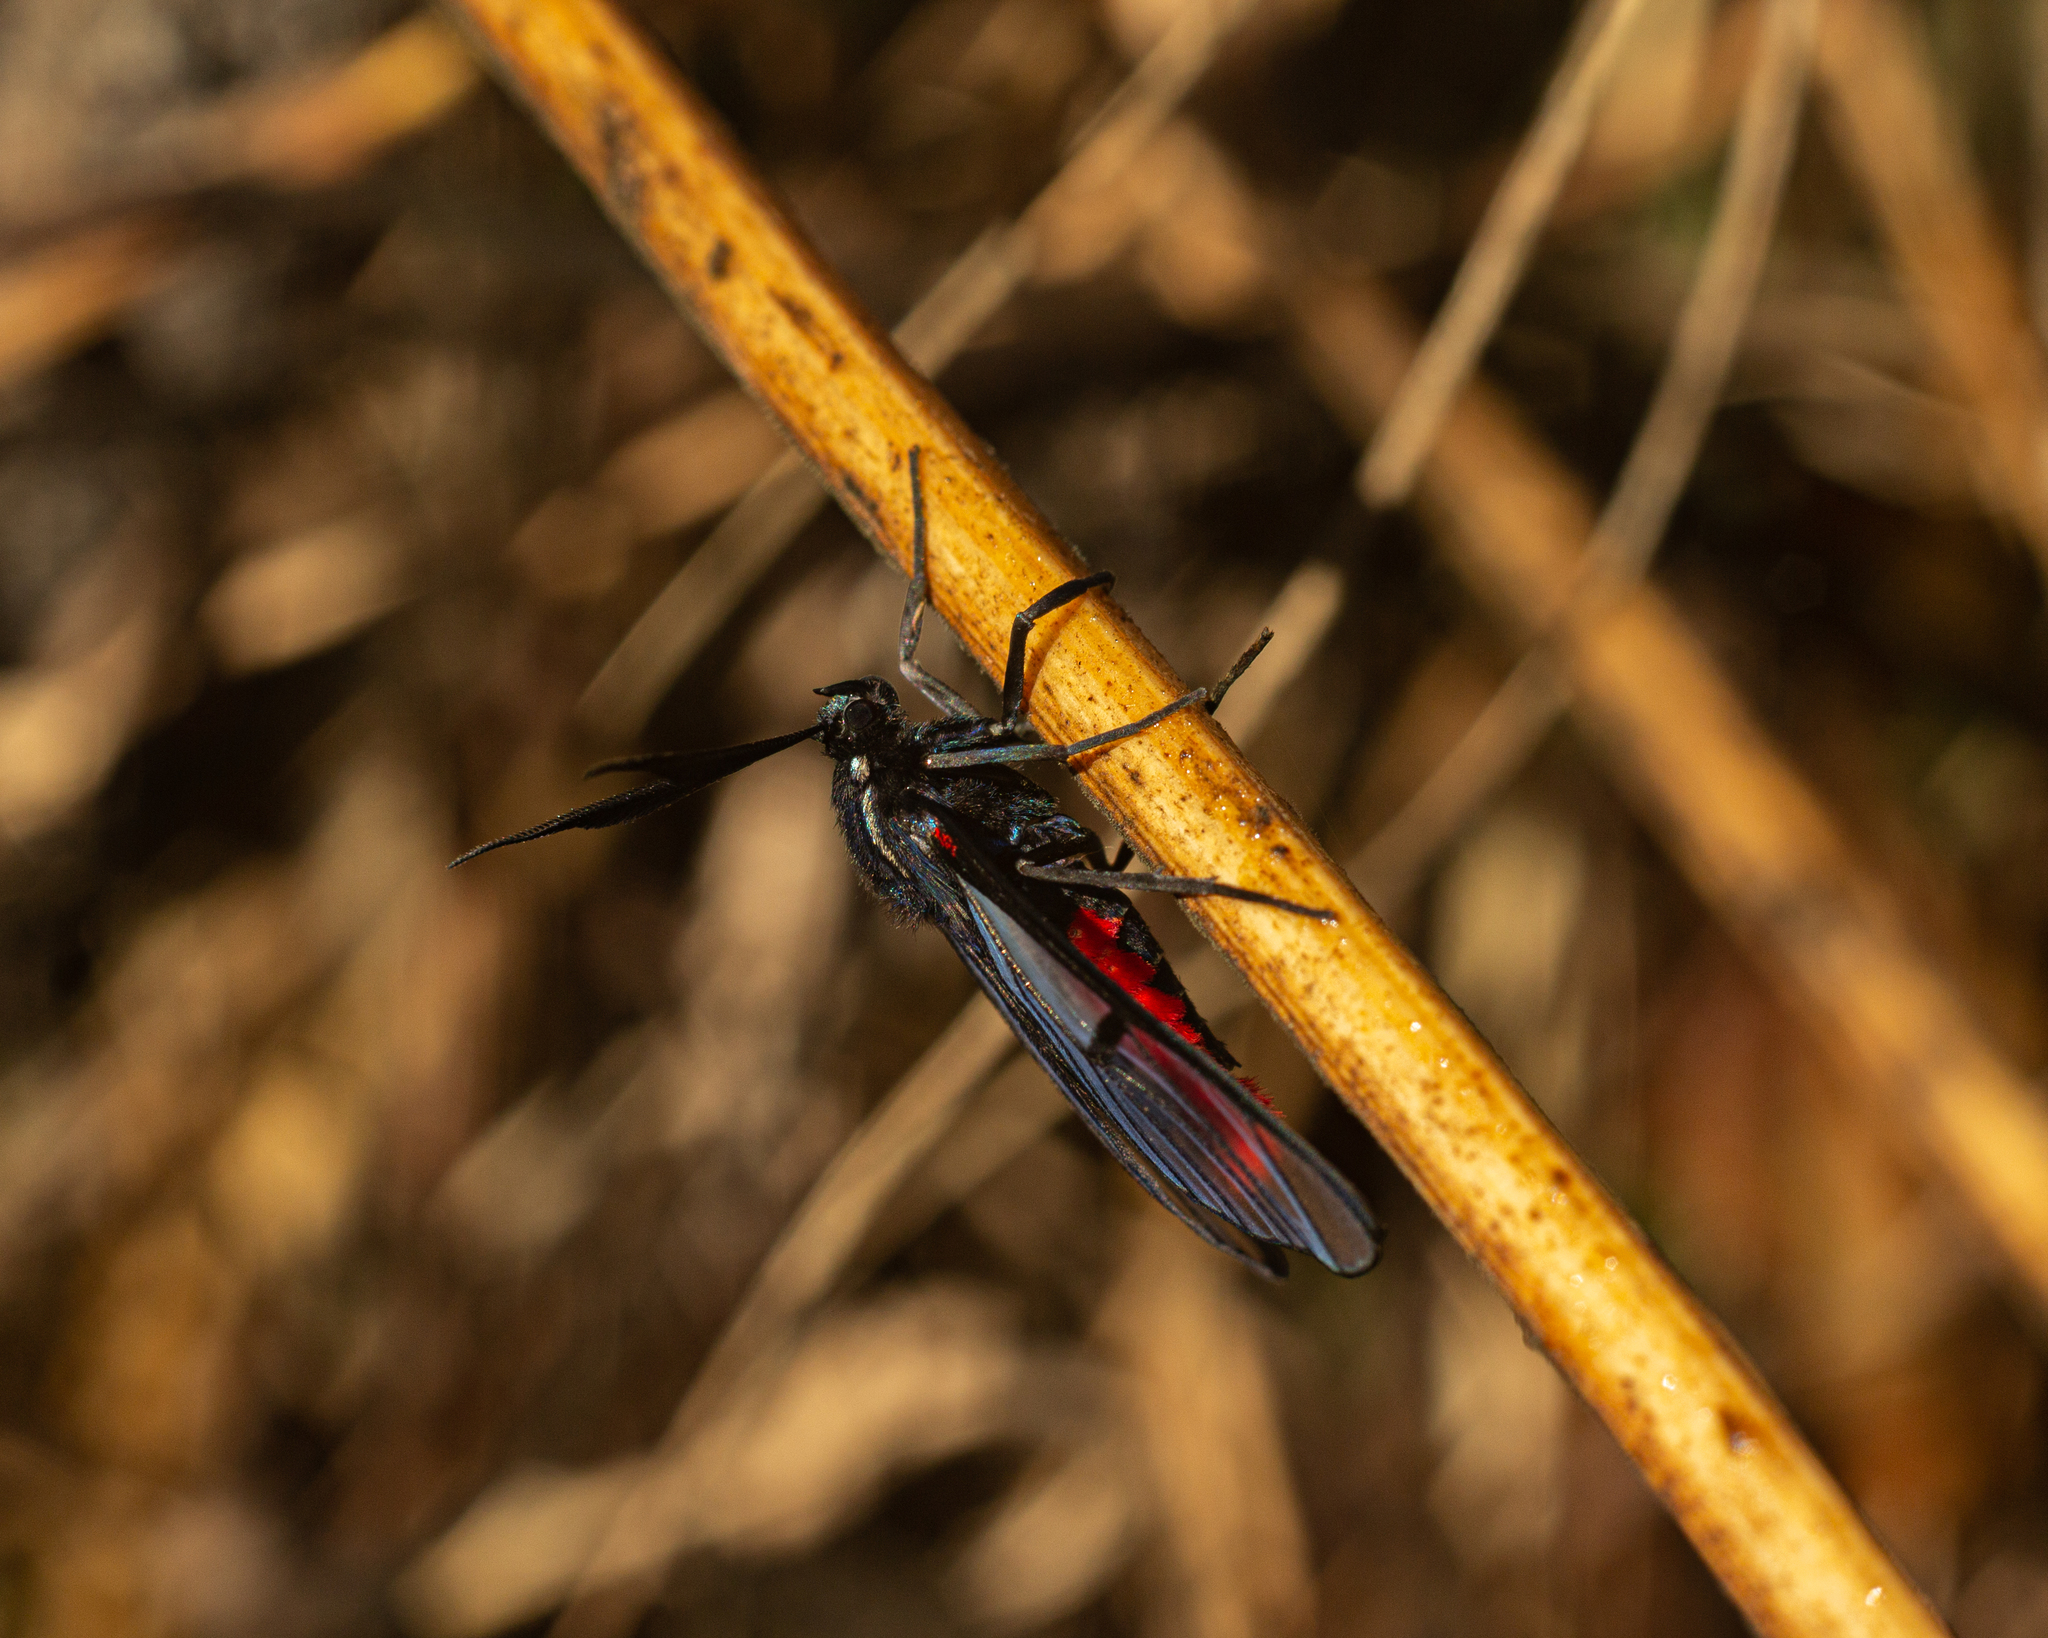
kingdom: Animalia
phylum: Arthropoda
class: Insecta
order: Lepidoptera
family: Erebidae
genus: Dinia
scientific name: Dinia eagrus
